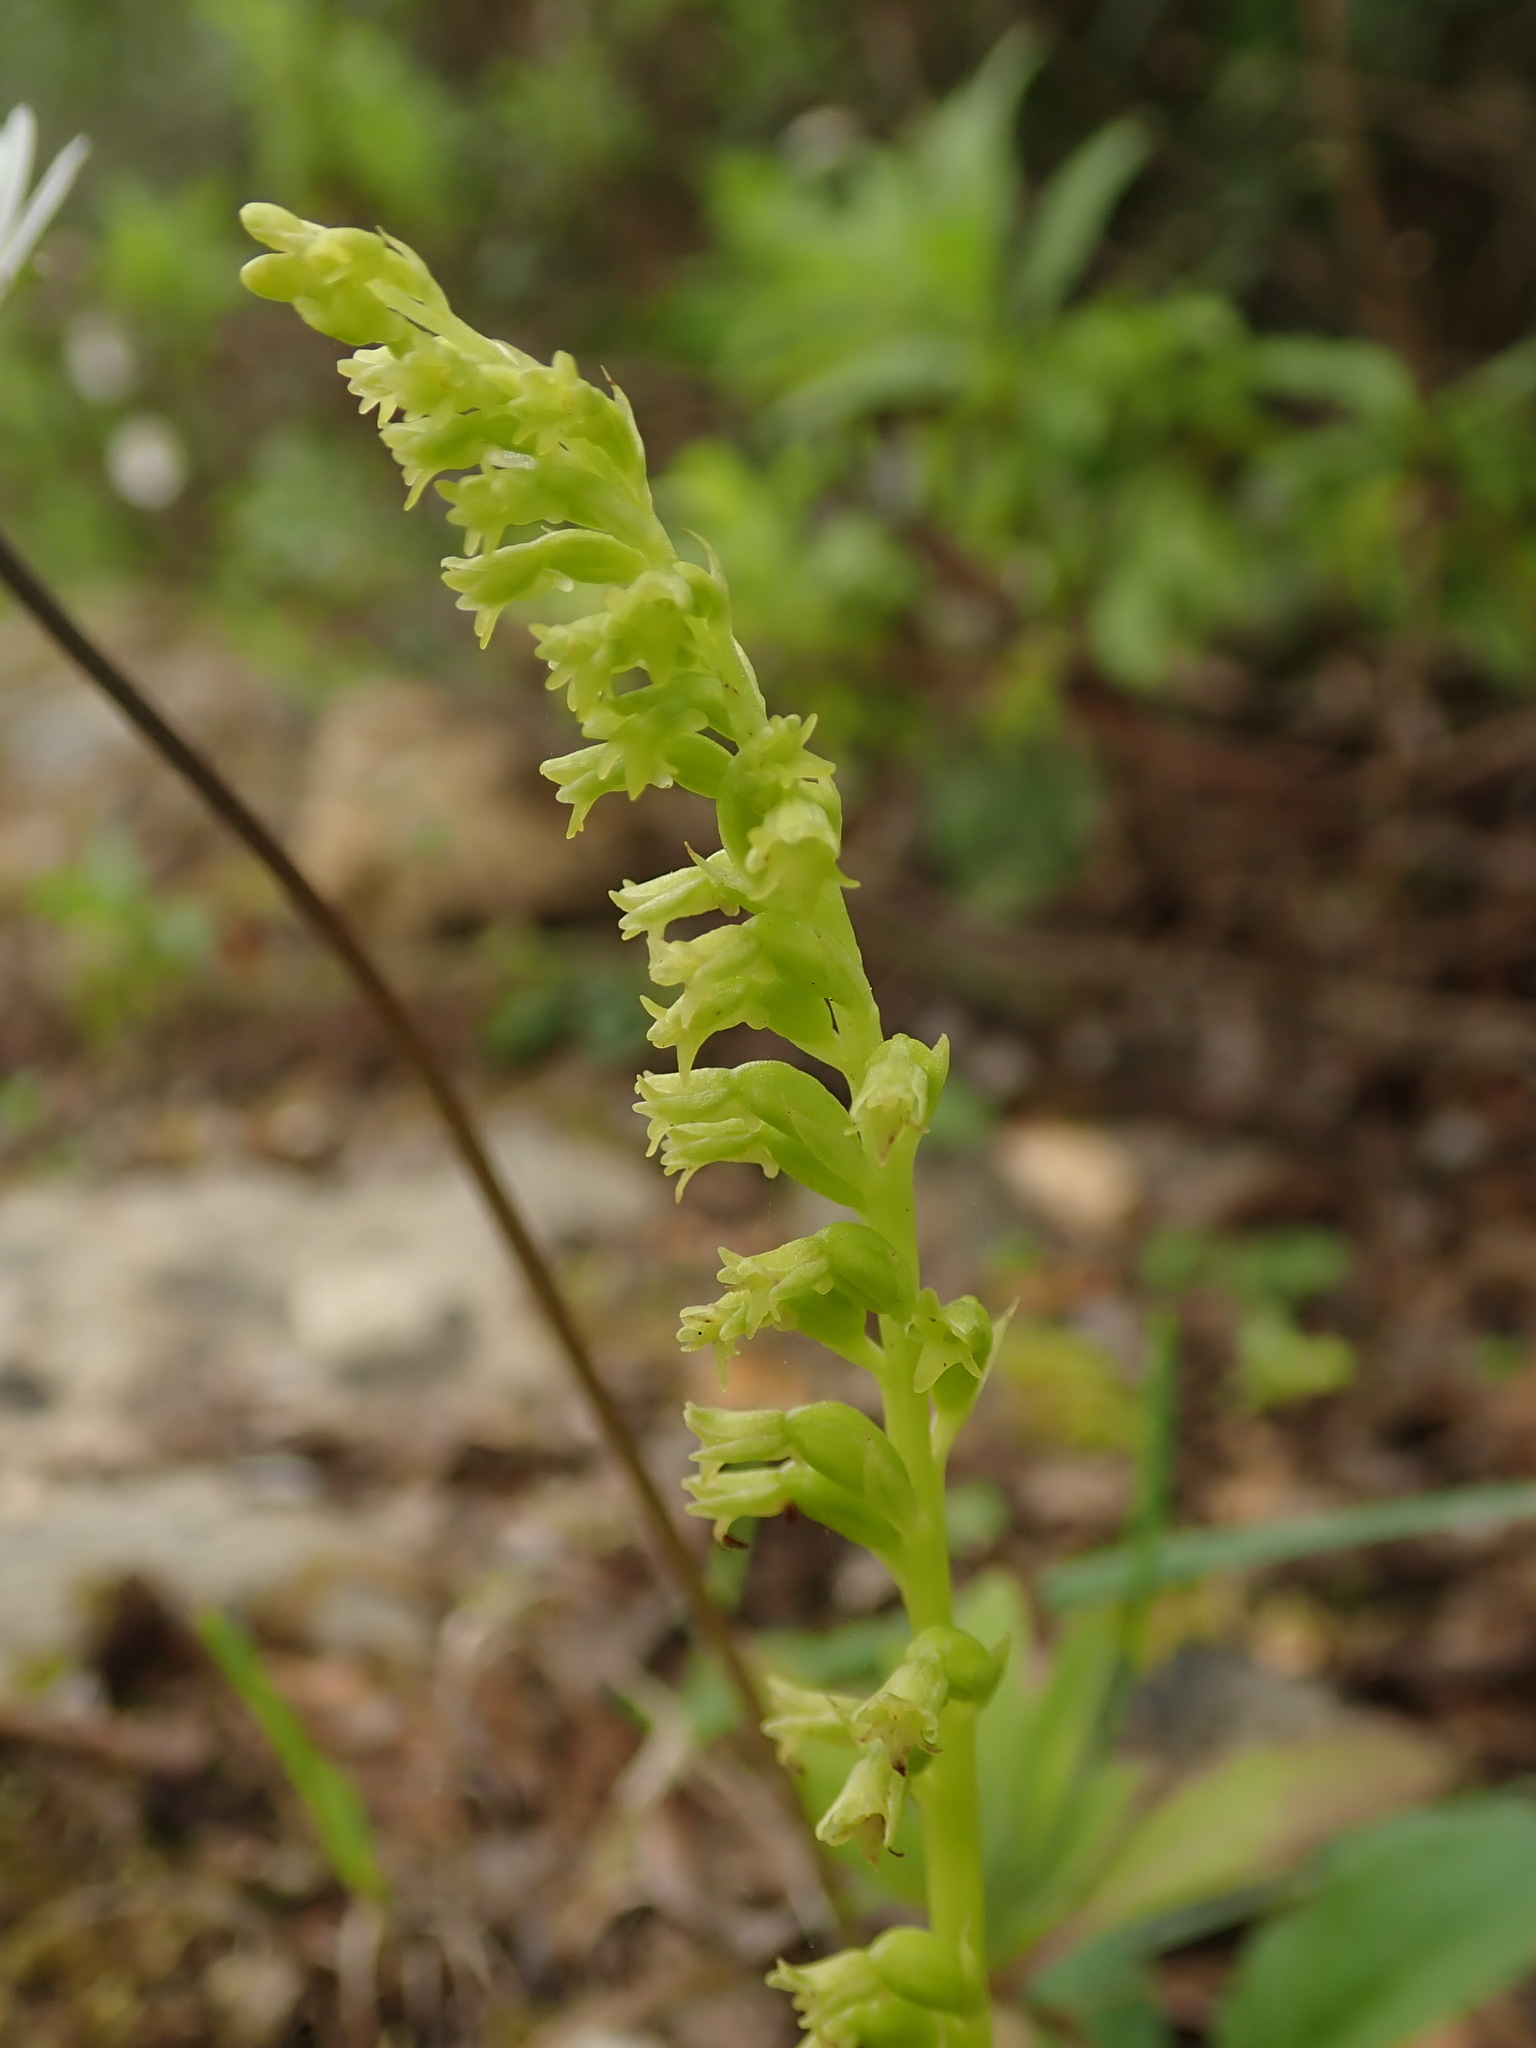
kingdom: Plantae
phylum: Tracheophyta
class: Liliopsida
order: Asparagales
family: Orchidaceae
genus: Gennaria
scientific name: Gennaria diphylla
